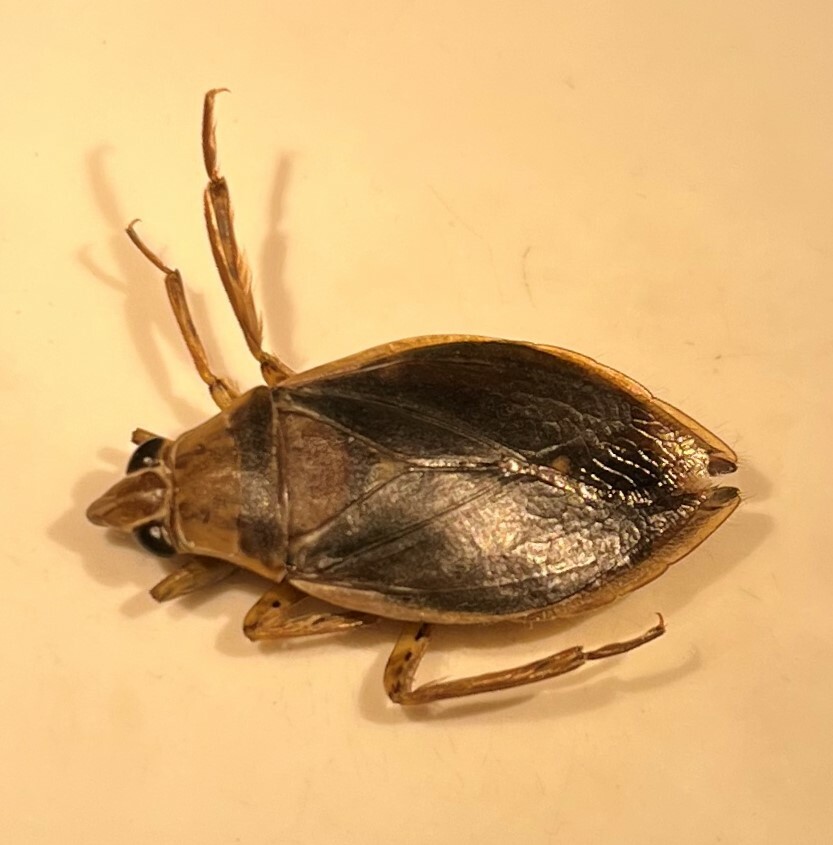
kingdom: Animalia
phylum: Arthropoda
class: Insecta
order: Hemiptera
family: Belostomatidae
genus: Belostoma
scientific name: Belostoma lutarium
